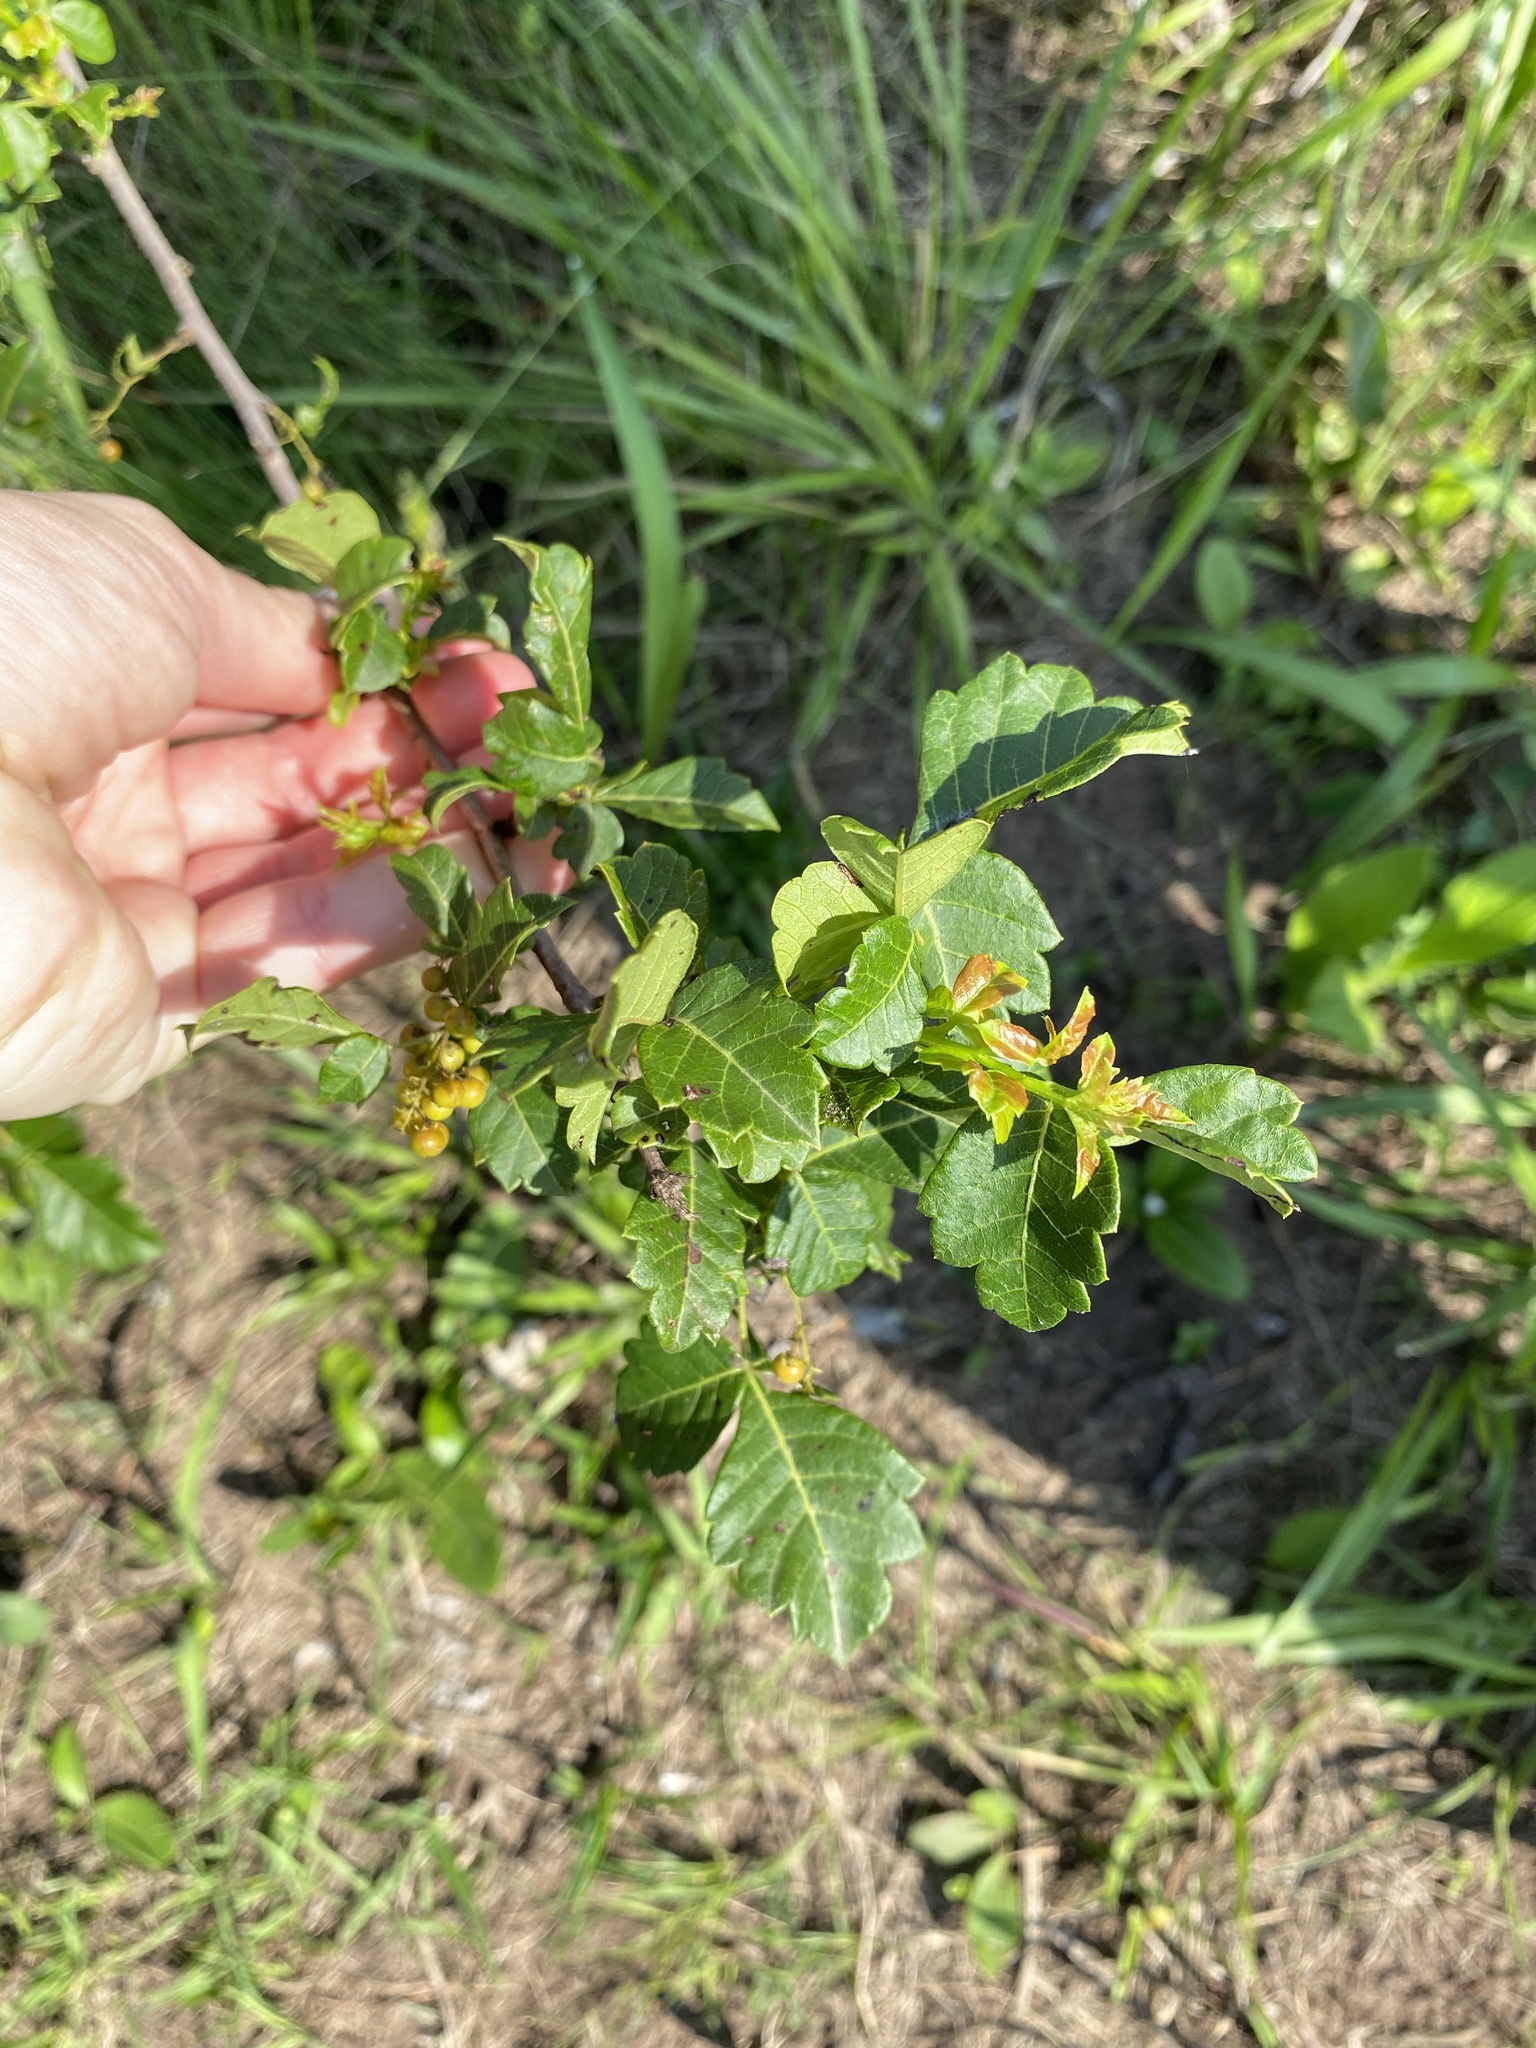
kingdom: Plantae
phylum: Tracheophyta
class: Magnoliopsida
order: Sapindales
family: Anacardiaceae
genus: Searsia
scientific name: Searsia dentata
